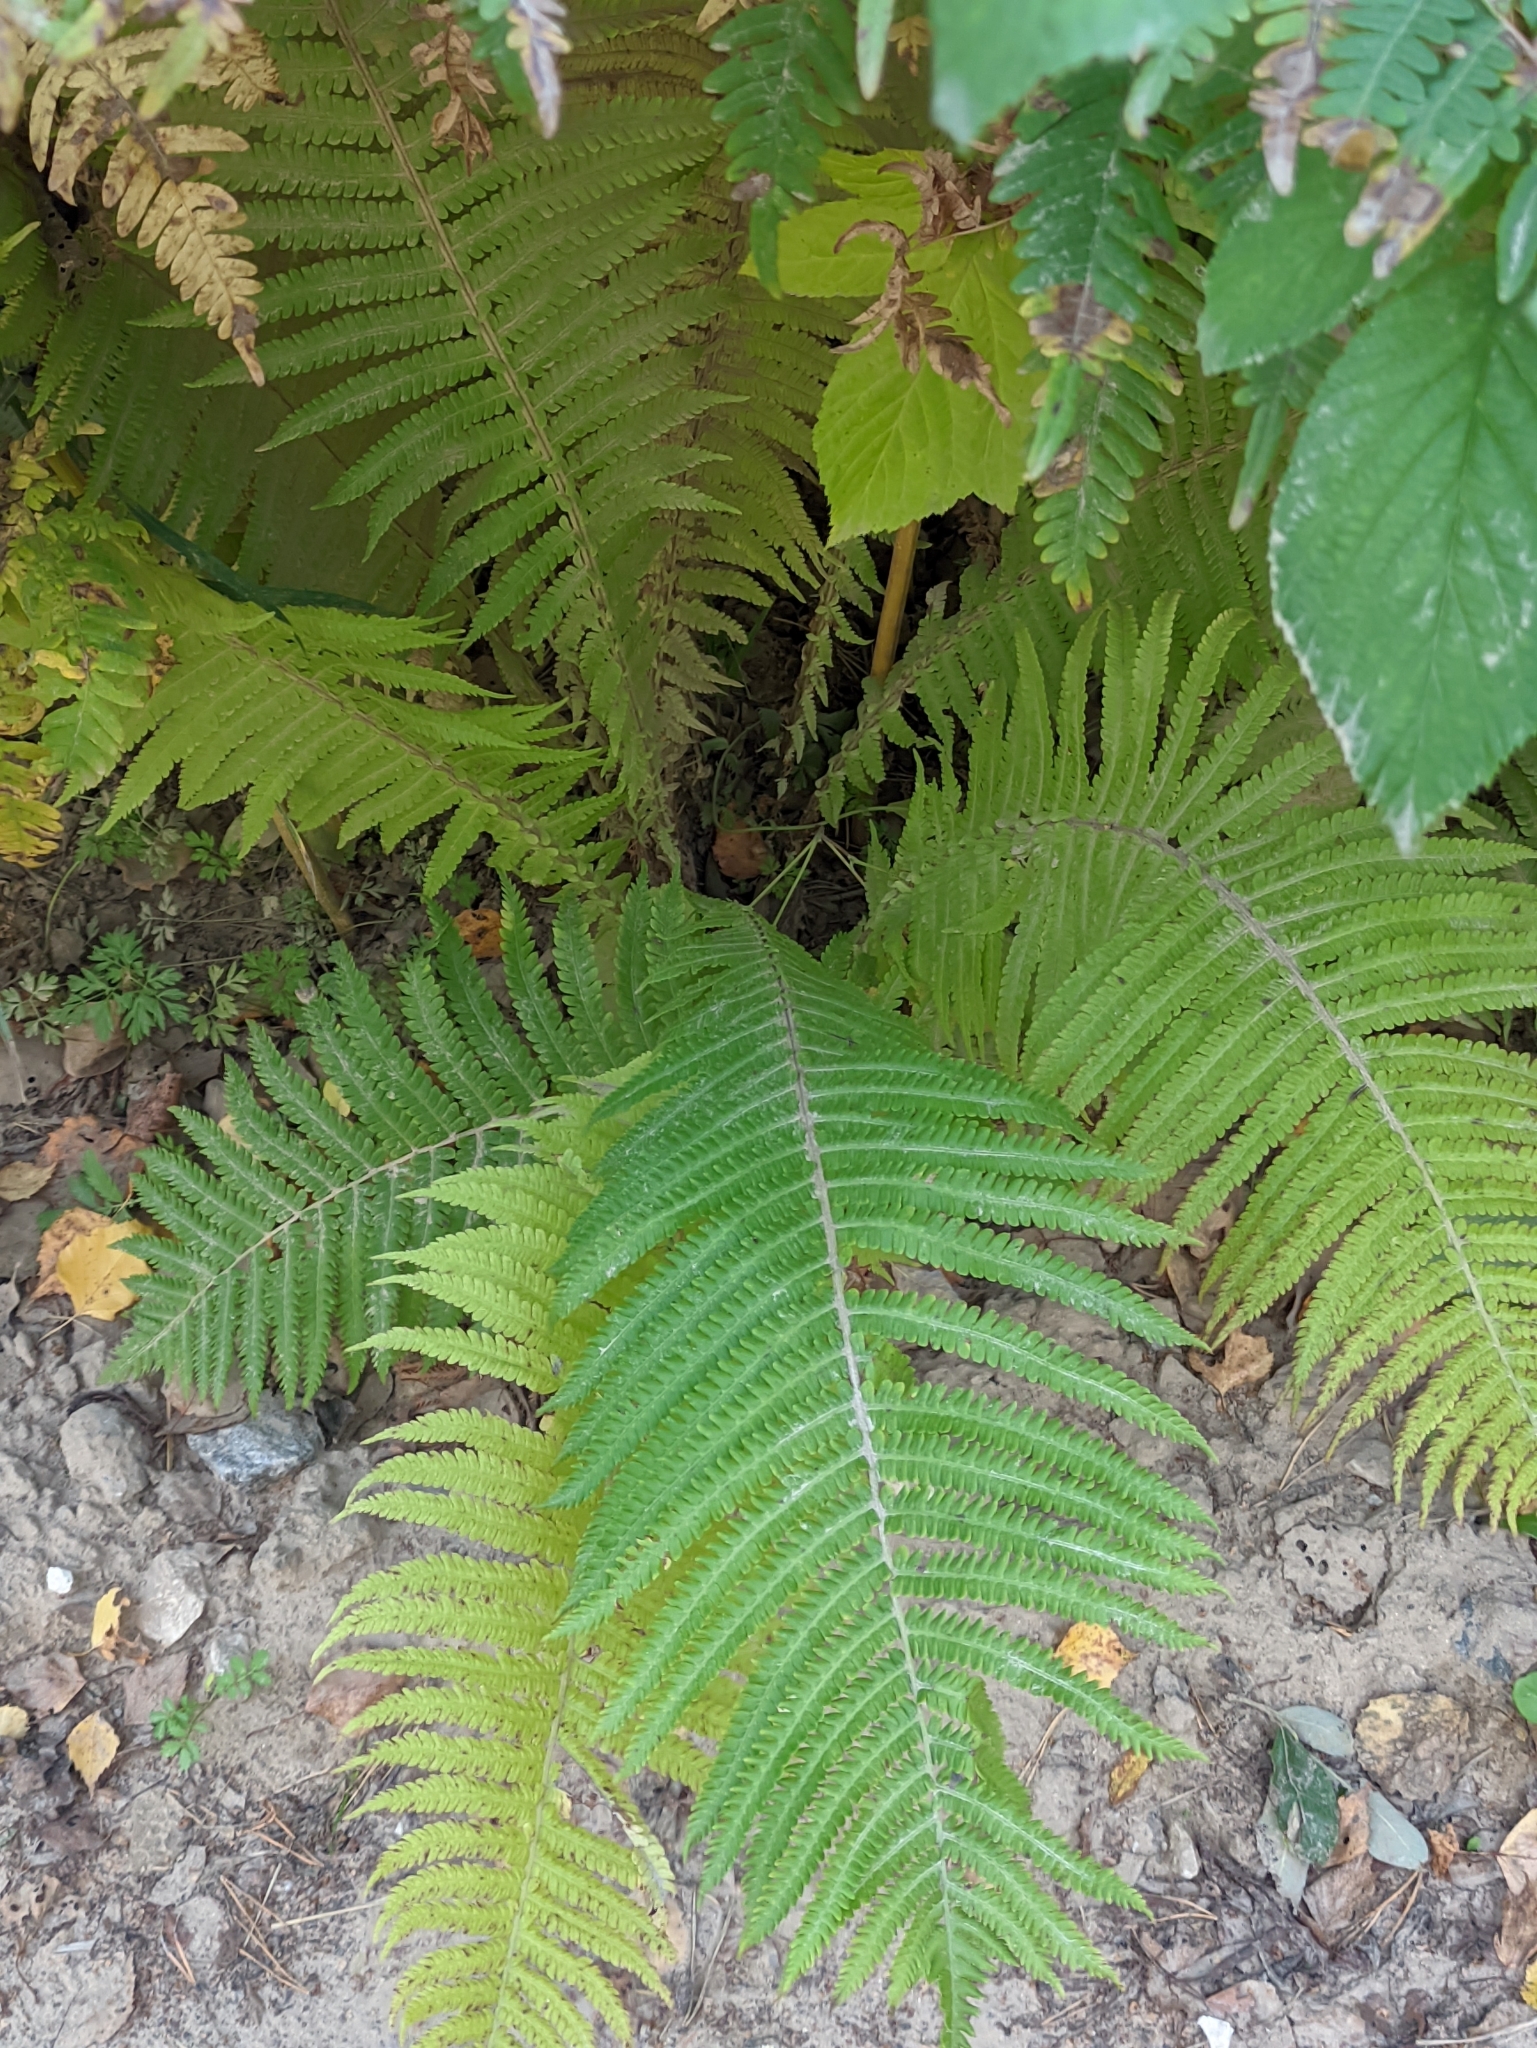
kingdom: Plantae
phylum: Tracheophyta
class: Polypodiopsida
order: Polypodiales
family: Onocleaceae
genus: Matteuccia
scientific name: Matteuccia struthiopteris
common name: Ostrich fern
